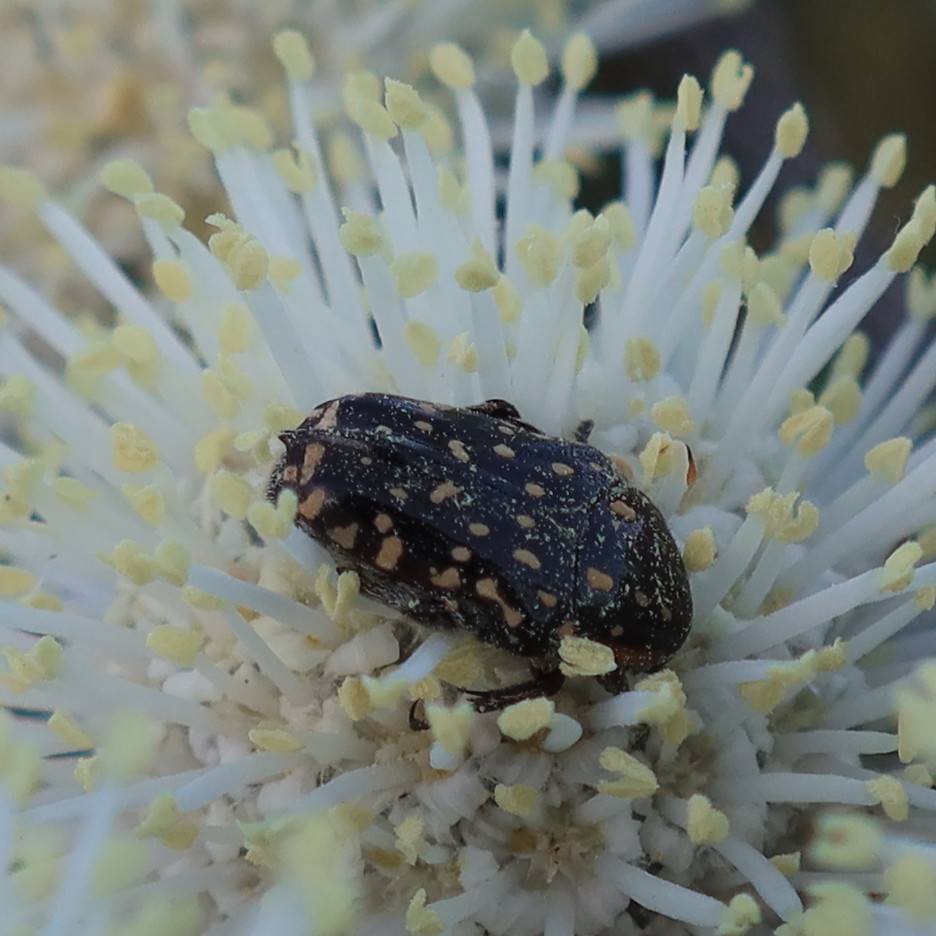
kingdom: Animalia
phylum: Arthropoda
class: Insecta
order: Coleoptera
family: Scarabaeidae
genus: Oxythyrea
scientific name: Oxythyrea
